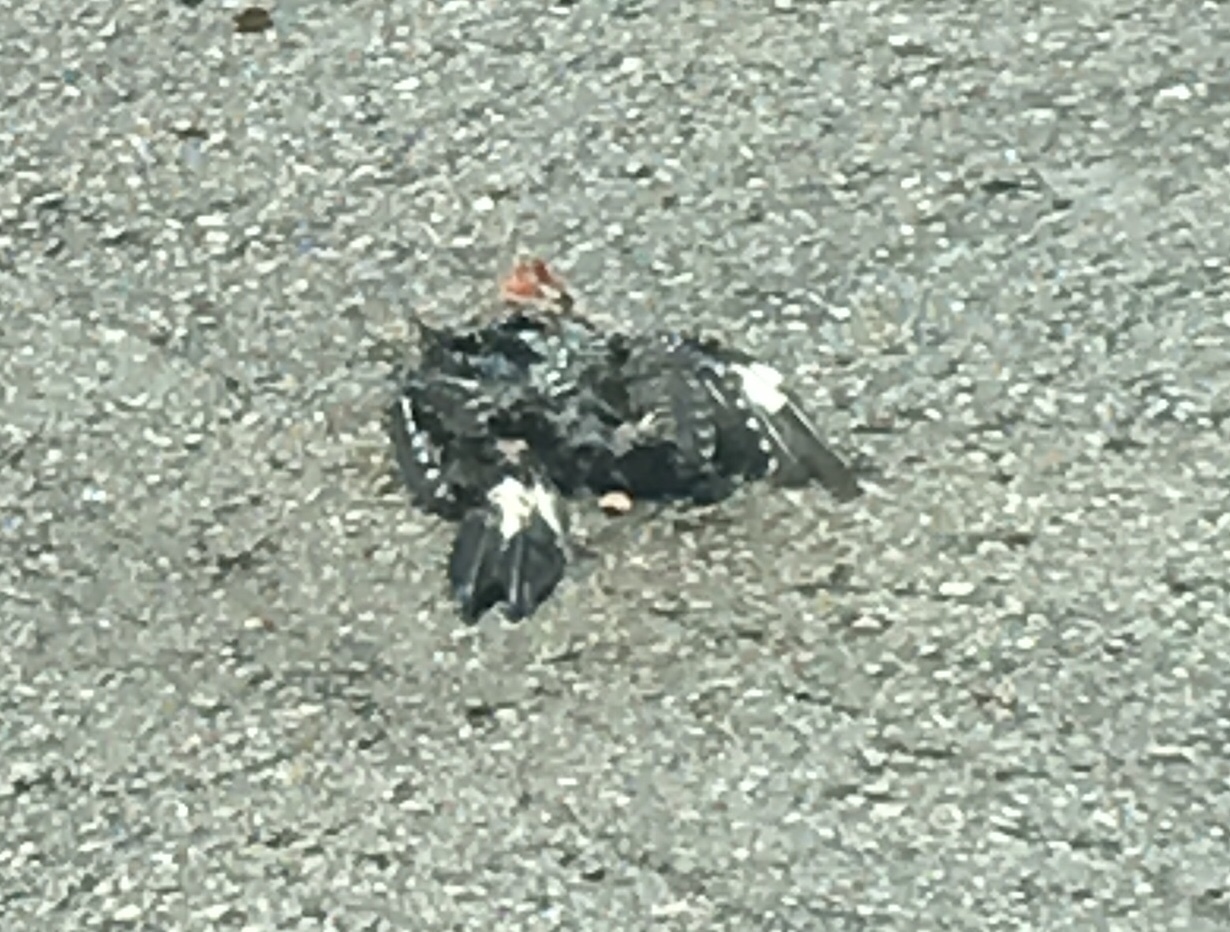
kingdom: Animalia
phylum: Chordata
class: Aves
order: Piciformes
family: Picidae
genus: Melanerpes
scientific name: Melanerpes carolinus
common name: Red-bellied woodpecker
